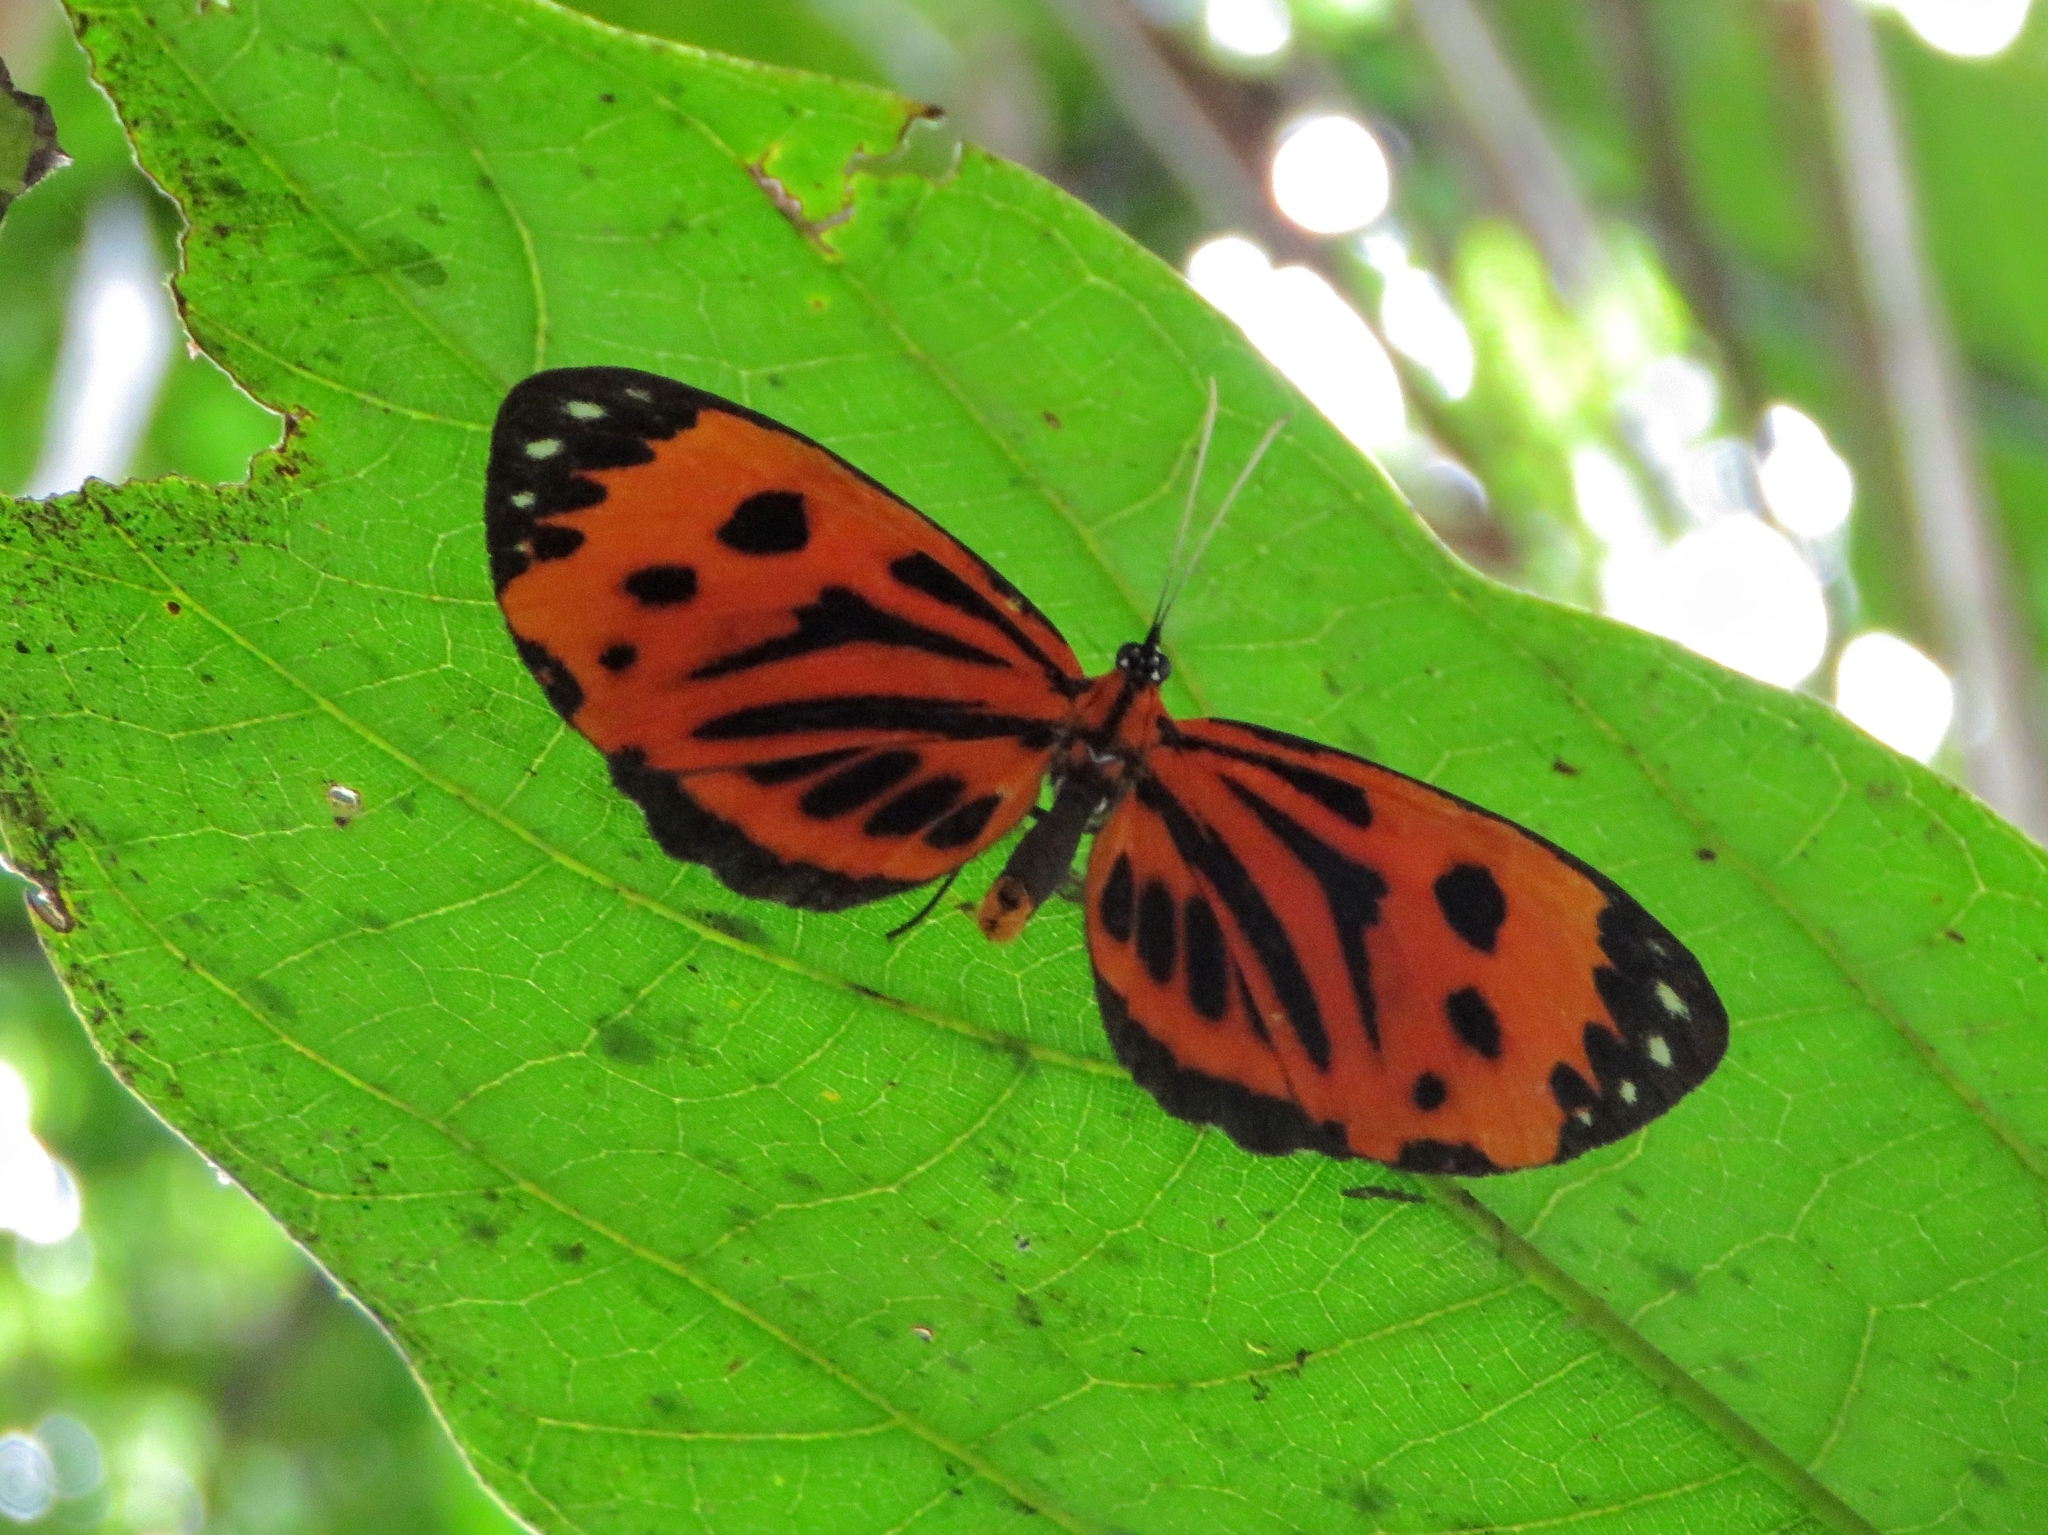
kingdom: Animalia
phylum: Arthropoda
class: Insecta
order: Lepidoptera
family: Riodinidae
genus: Stalachtis
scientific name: Stalachtis calliope
